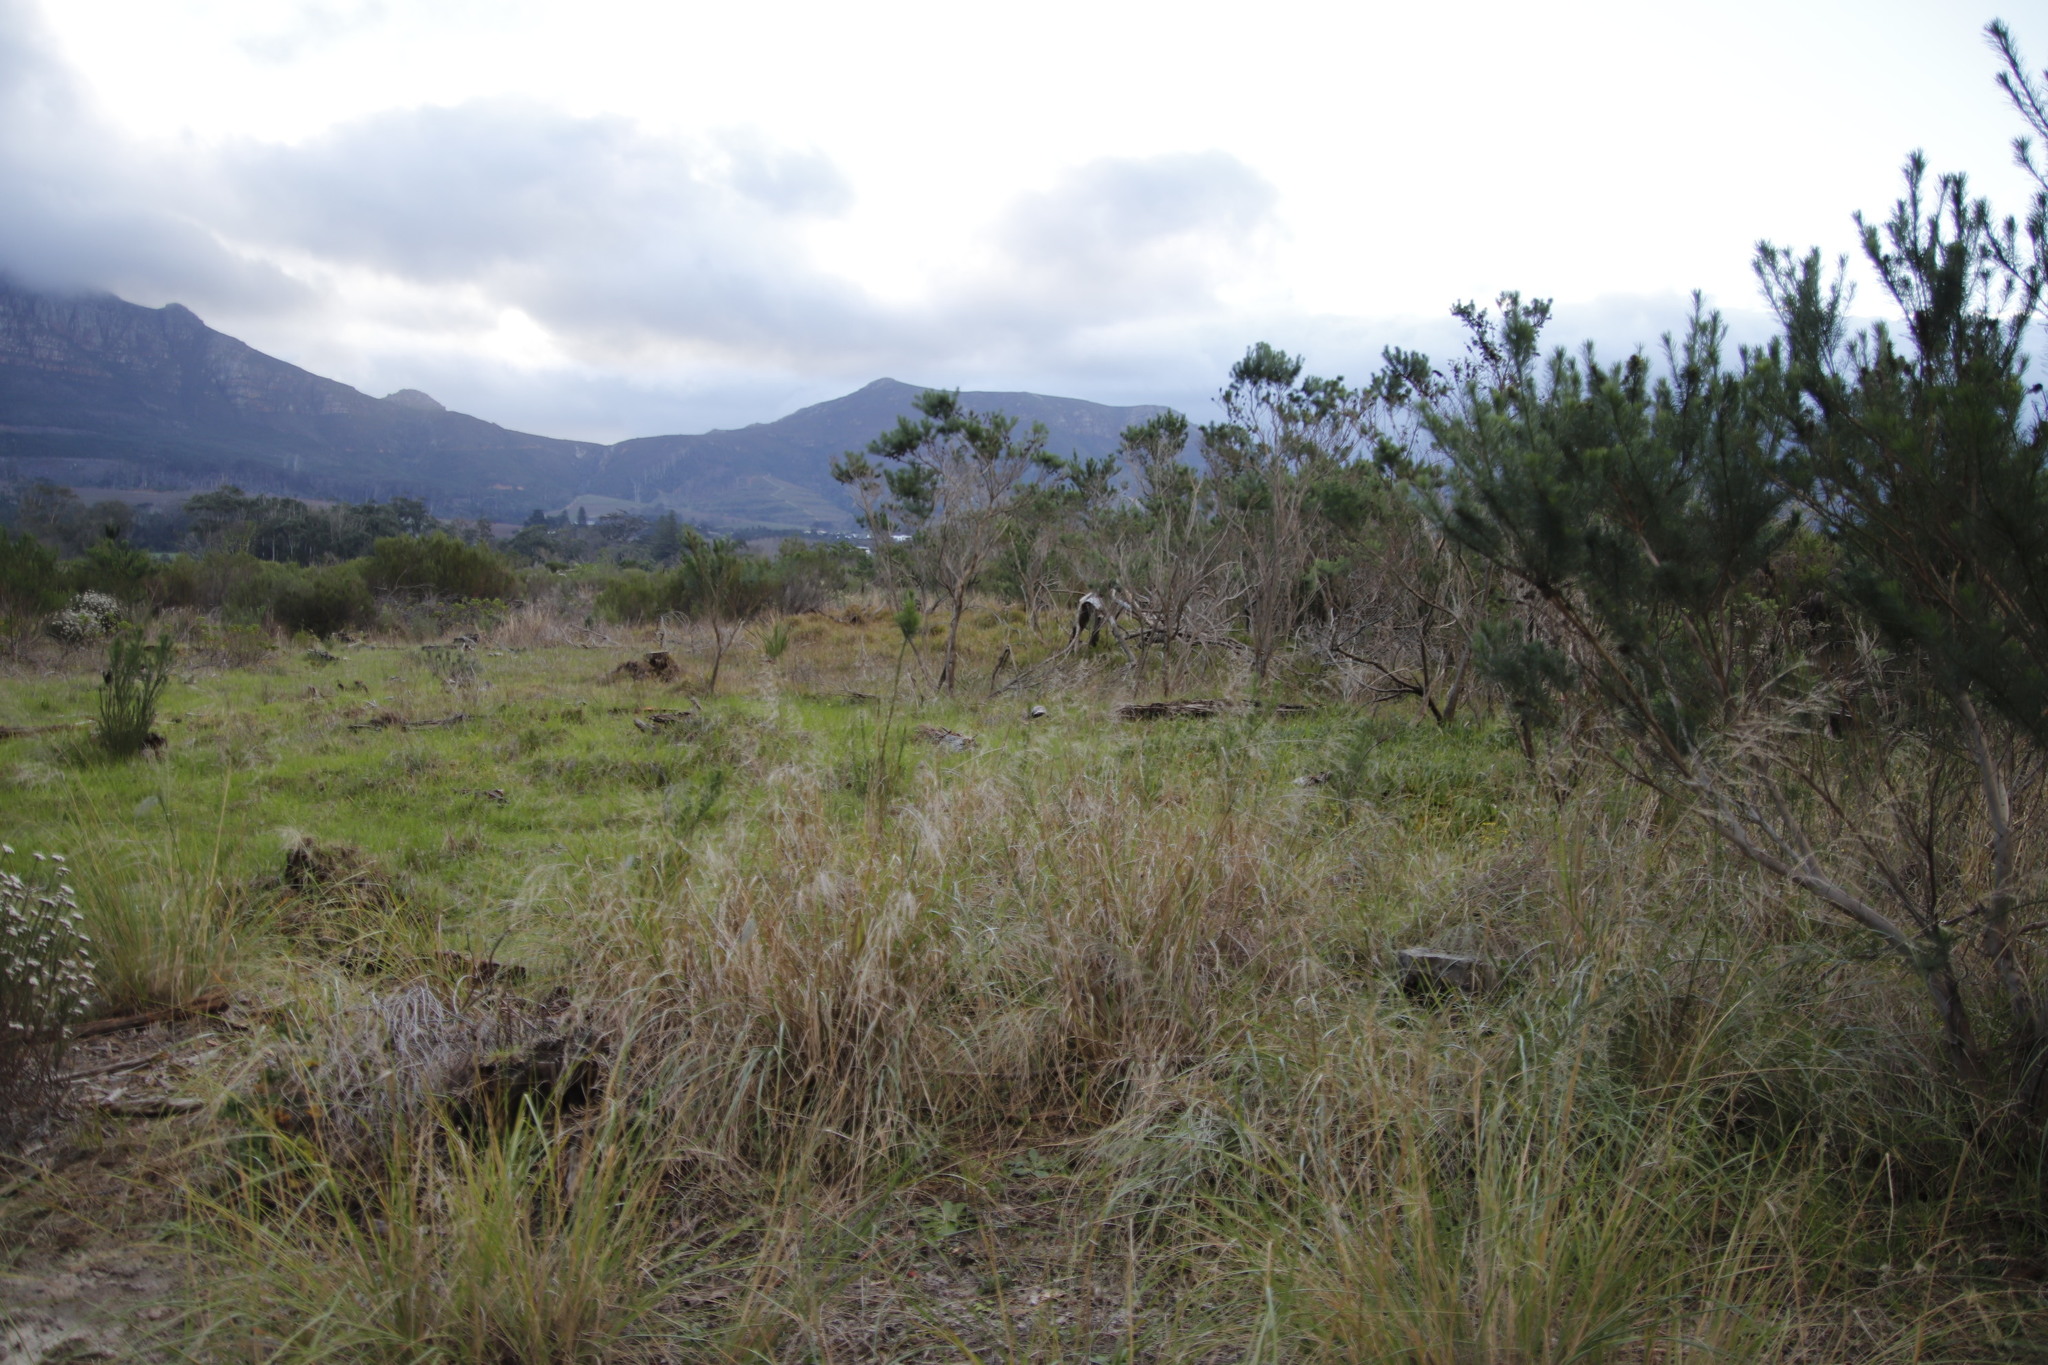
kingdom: Plantae
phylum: Tracheophyta
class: Magnoliopsida
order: Fabales
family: Fabaceae
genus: Psoralea
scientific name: Psoralea pinnata
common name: African scurfpea
